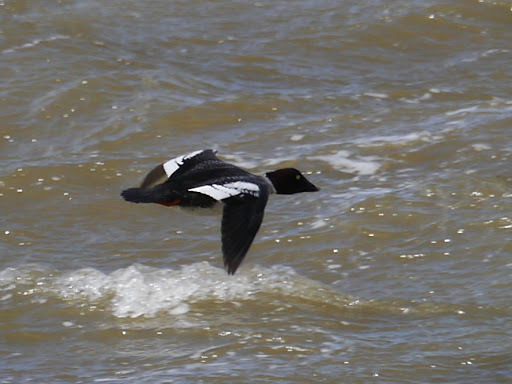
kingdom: Animalia
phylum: Chordata
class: Aves
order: Anseriformes
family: Anatidae
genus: Bucephala
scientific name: Bucephala clangula
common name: Common goldeneye
